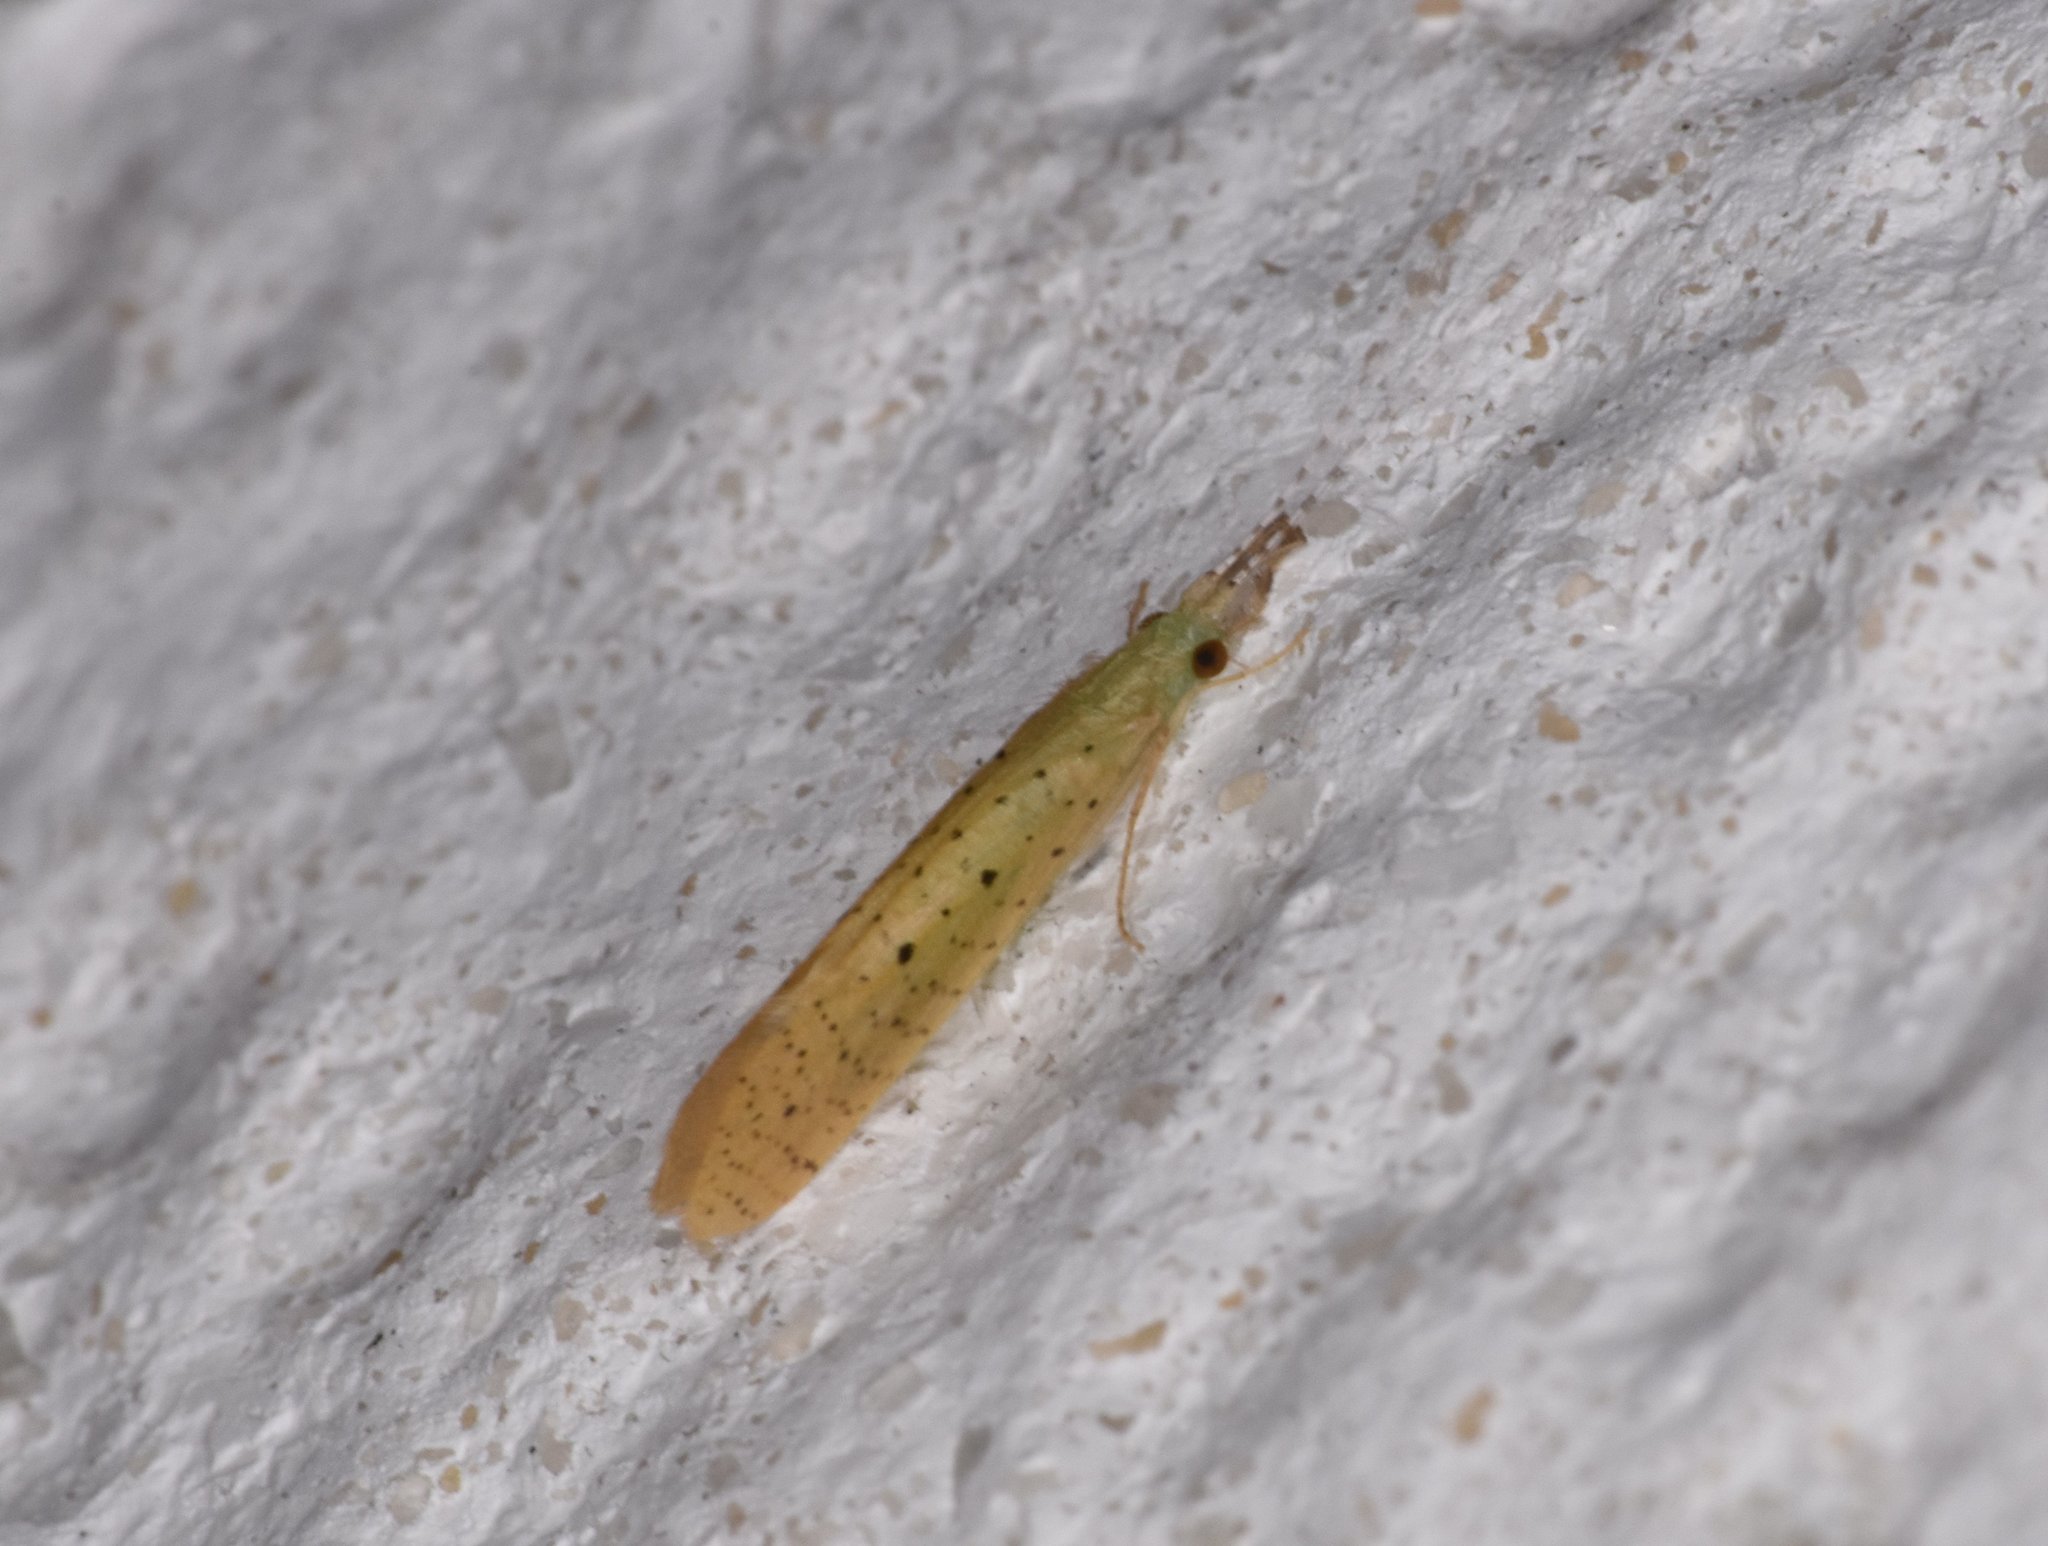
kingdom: Animalia
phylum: Arthropoda
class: Insecta
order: Trichoptera
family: Leptoceridae
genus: Nectopsyche
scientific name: Nectopsyche pavida
